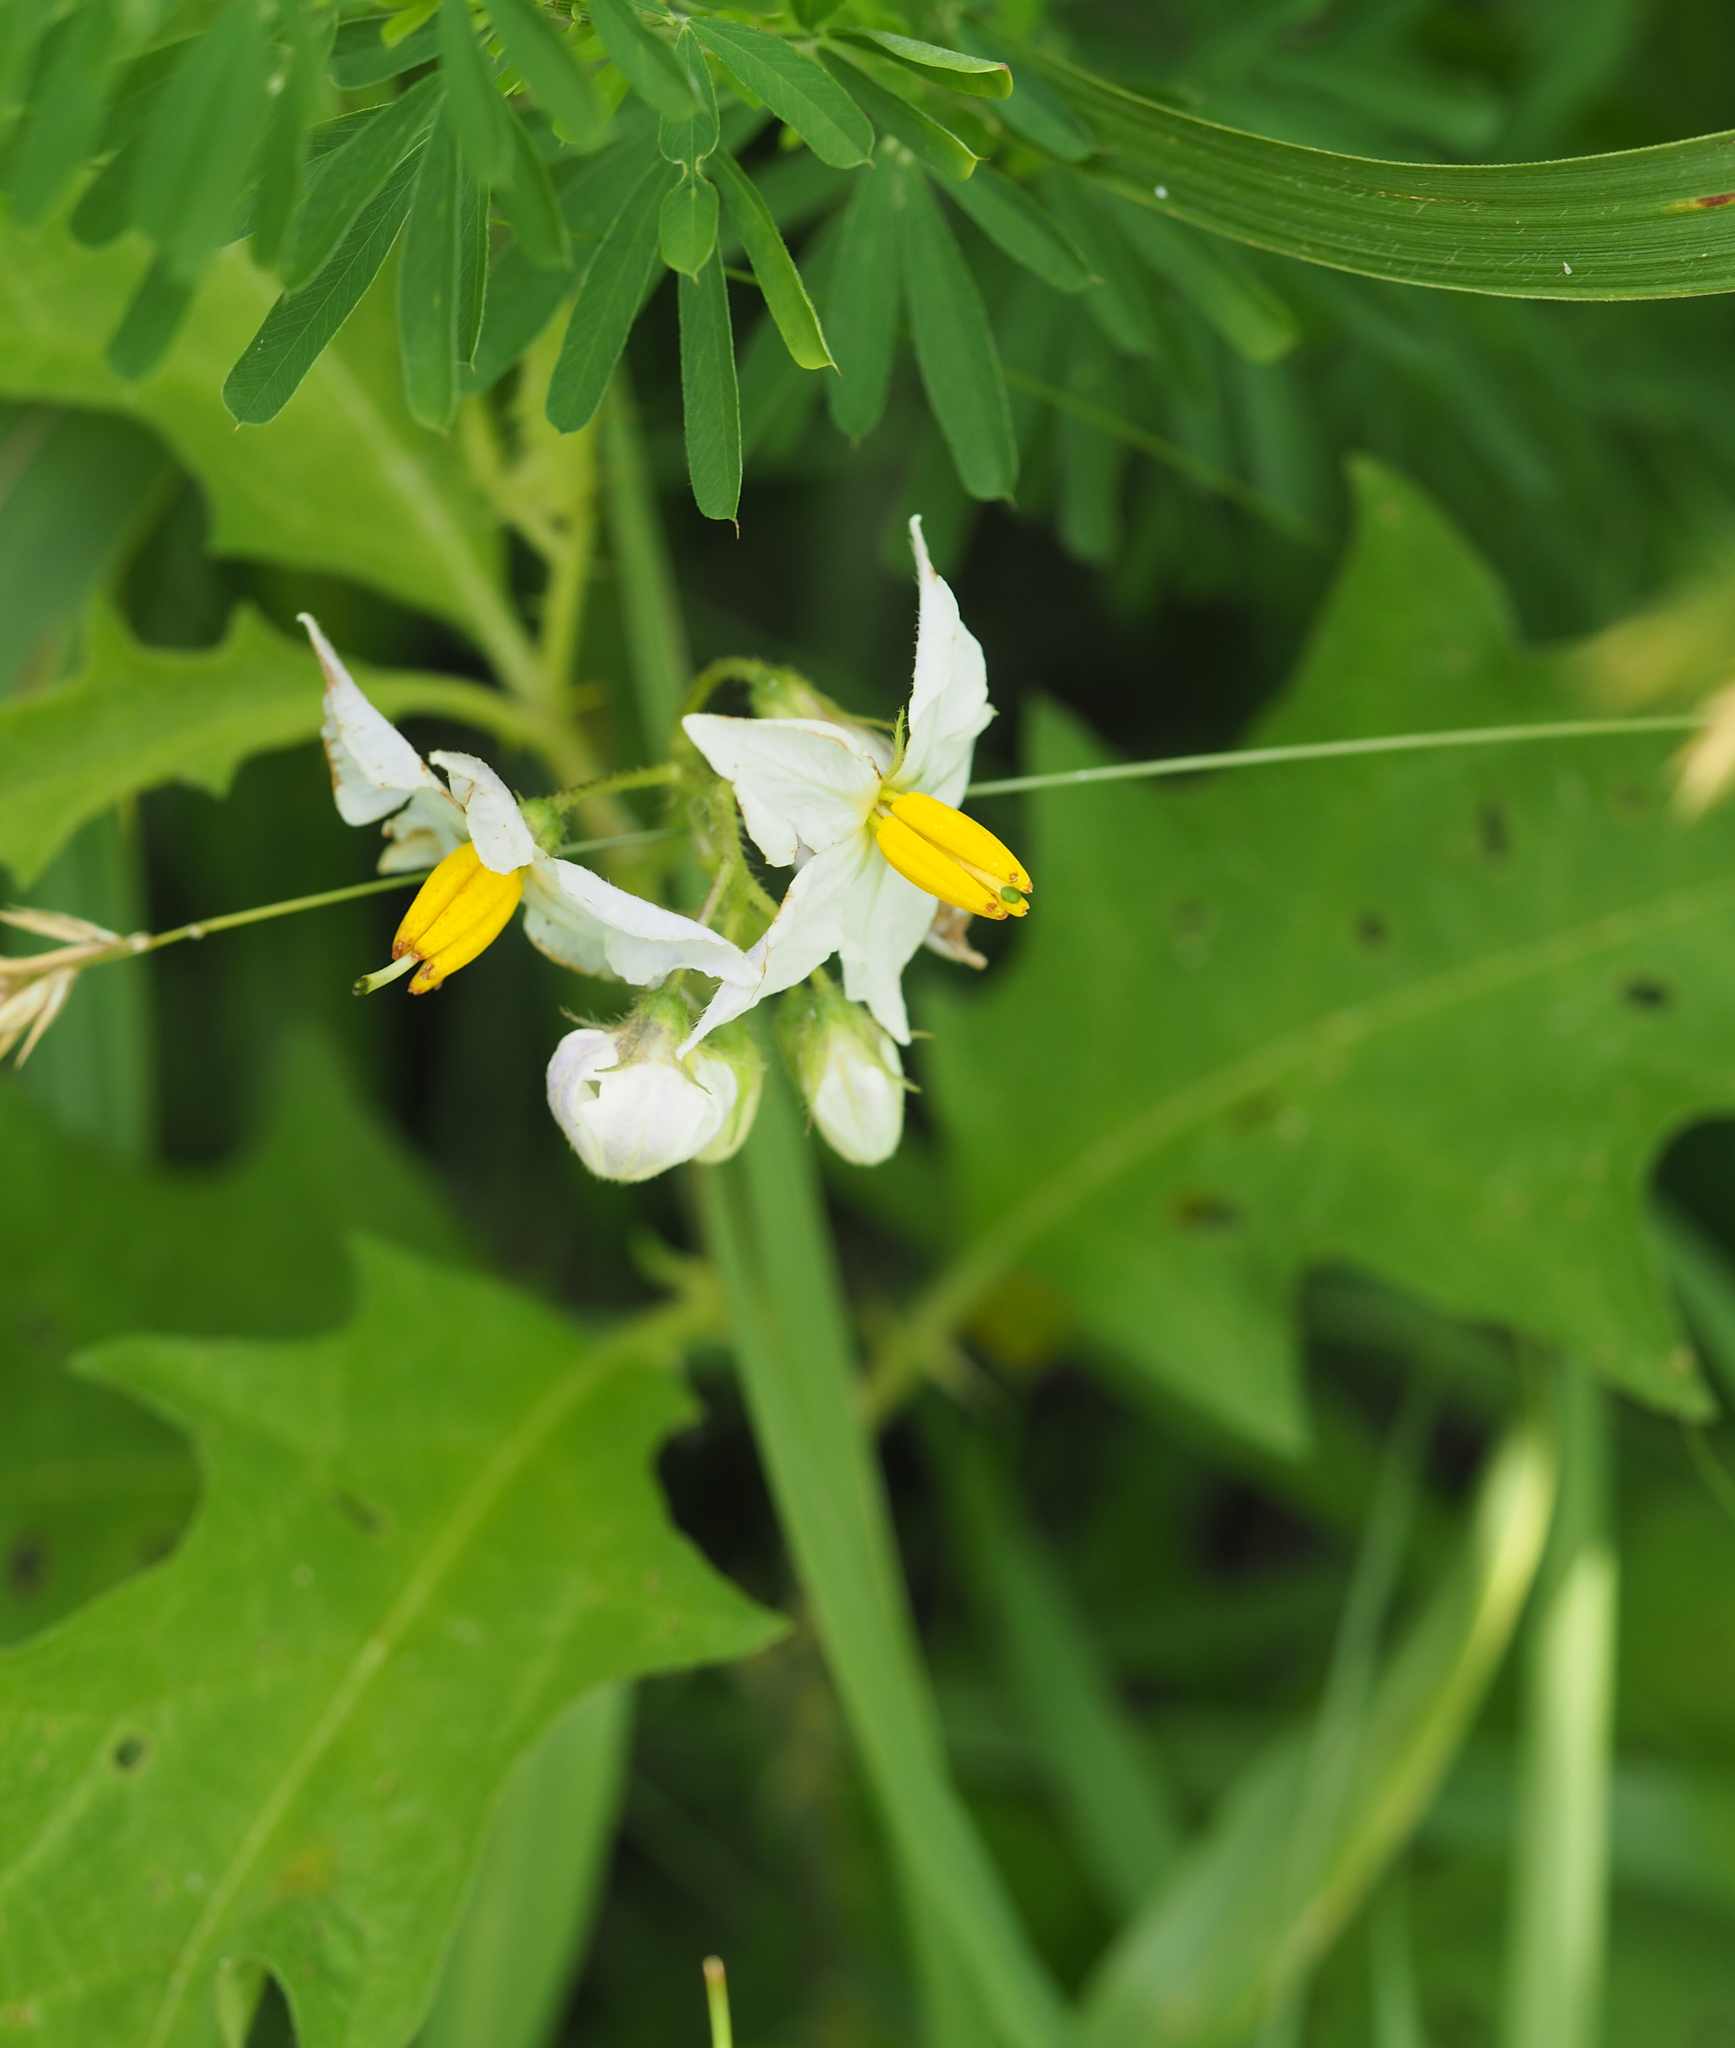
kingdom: Plantae
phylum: Tracheophyta
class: Magnoliopsida
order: Solanales
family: Solanaceae
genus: Solanum
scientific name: Solanum carolinense
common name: Horse-nettle
